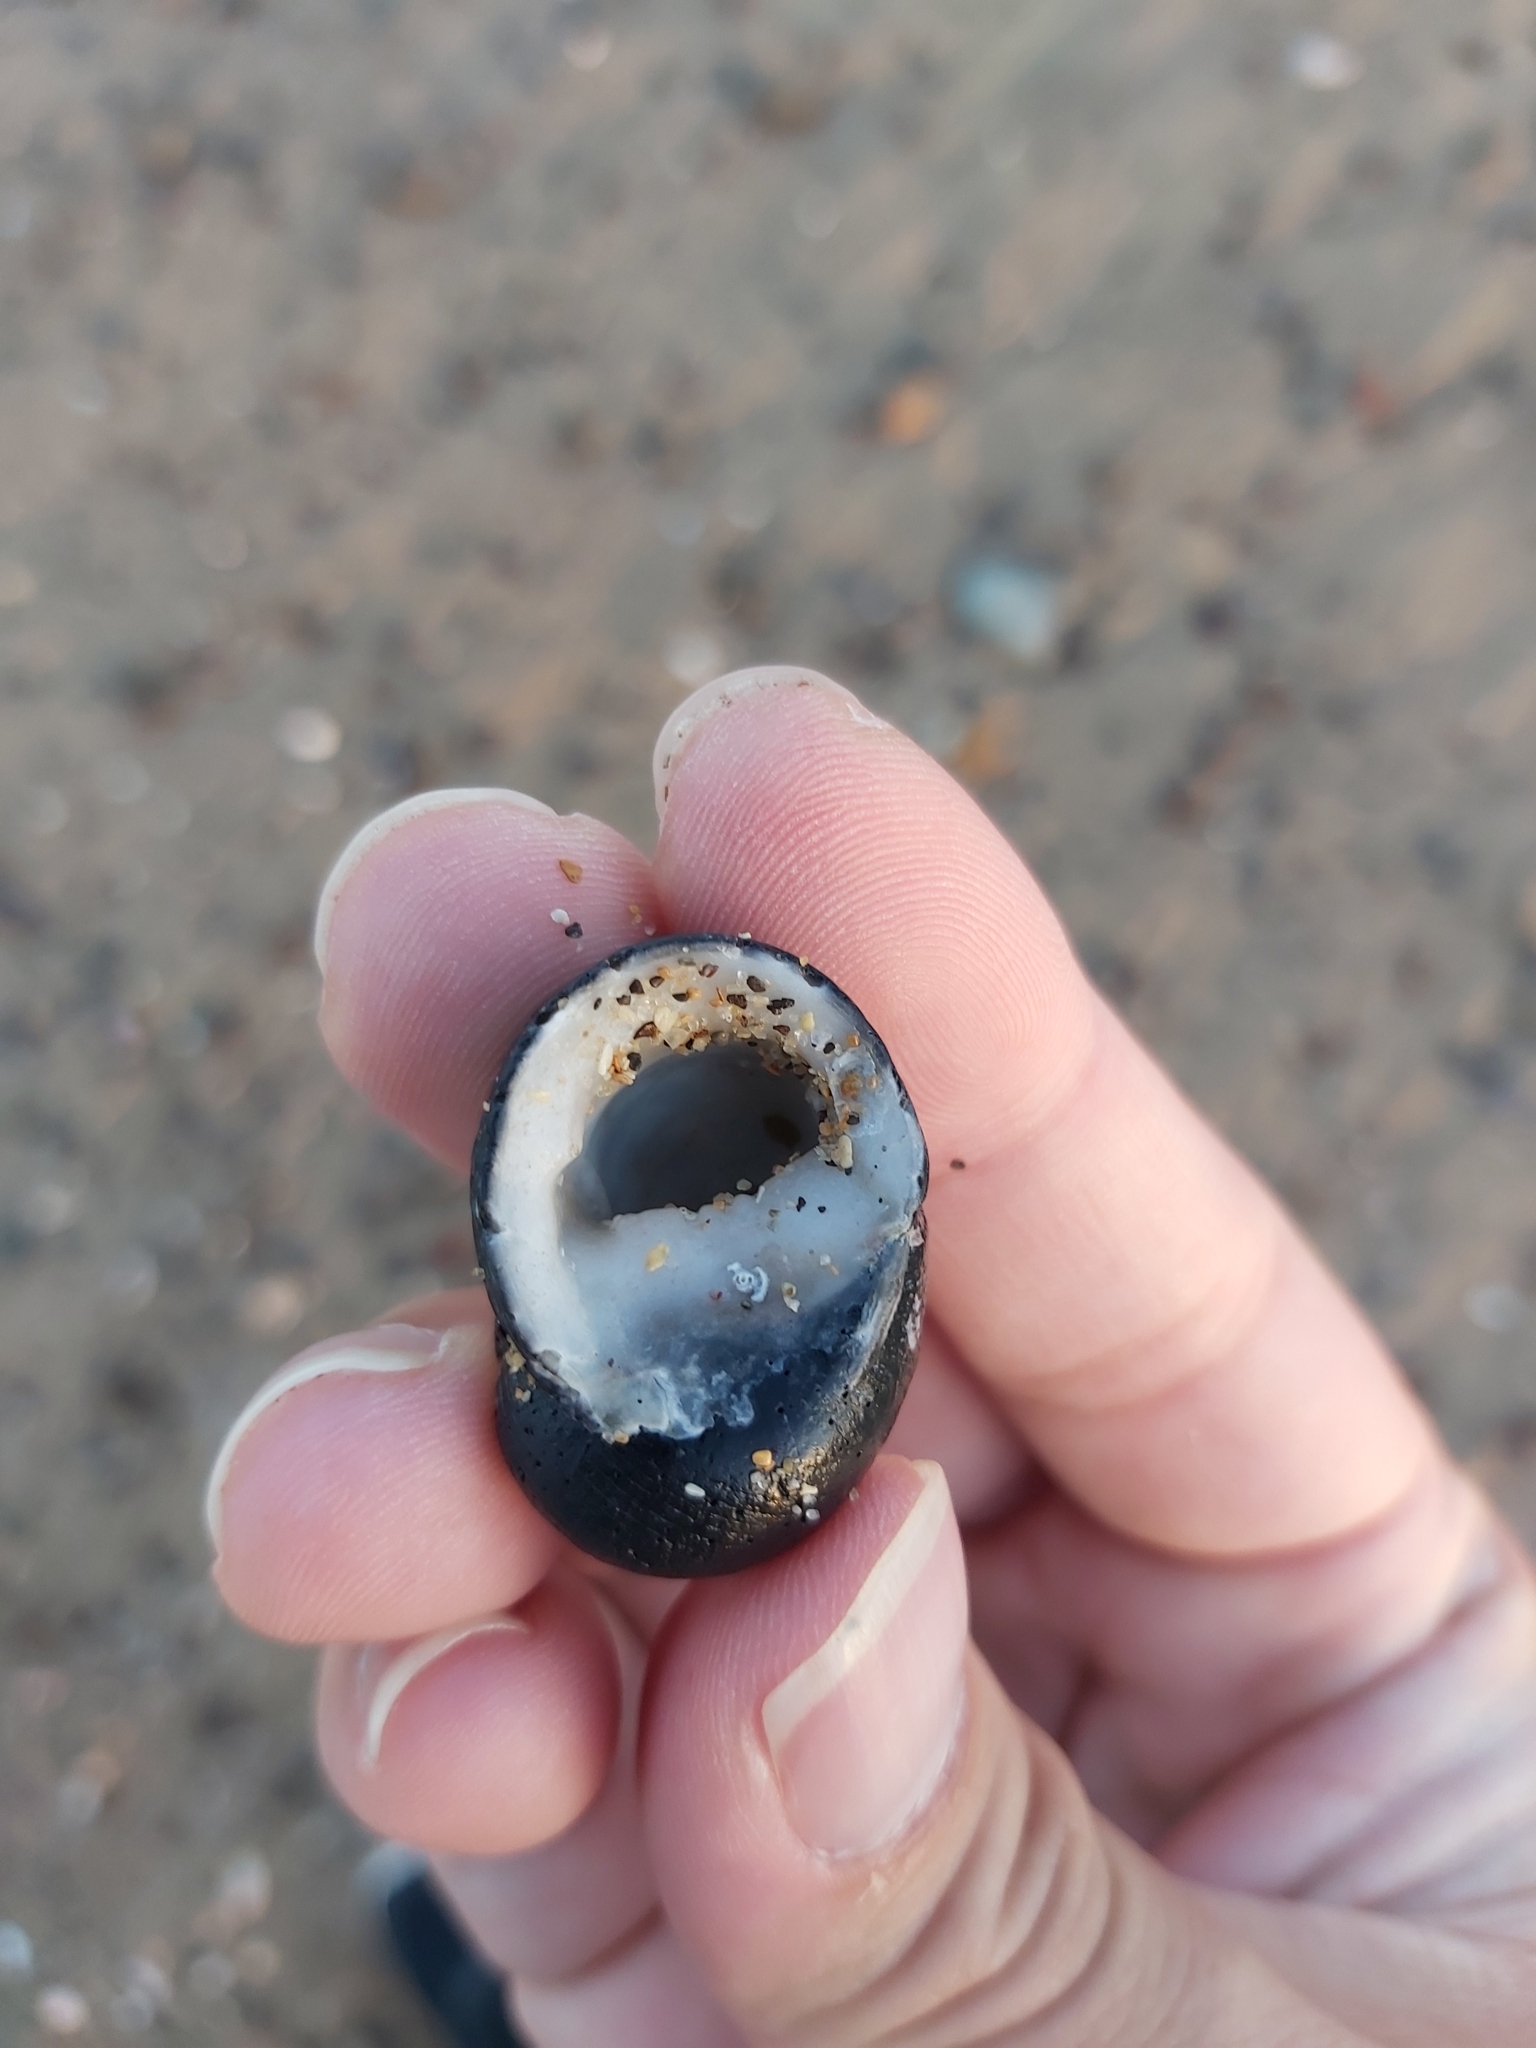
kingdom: Animalia
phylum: Mollusca
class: Gastropoda
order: Cycloneritida
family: Neritidae
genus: Nerita
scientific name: Nerita melanotragus
